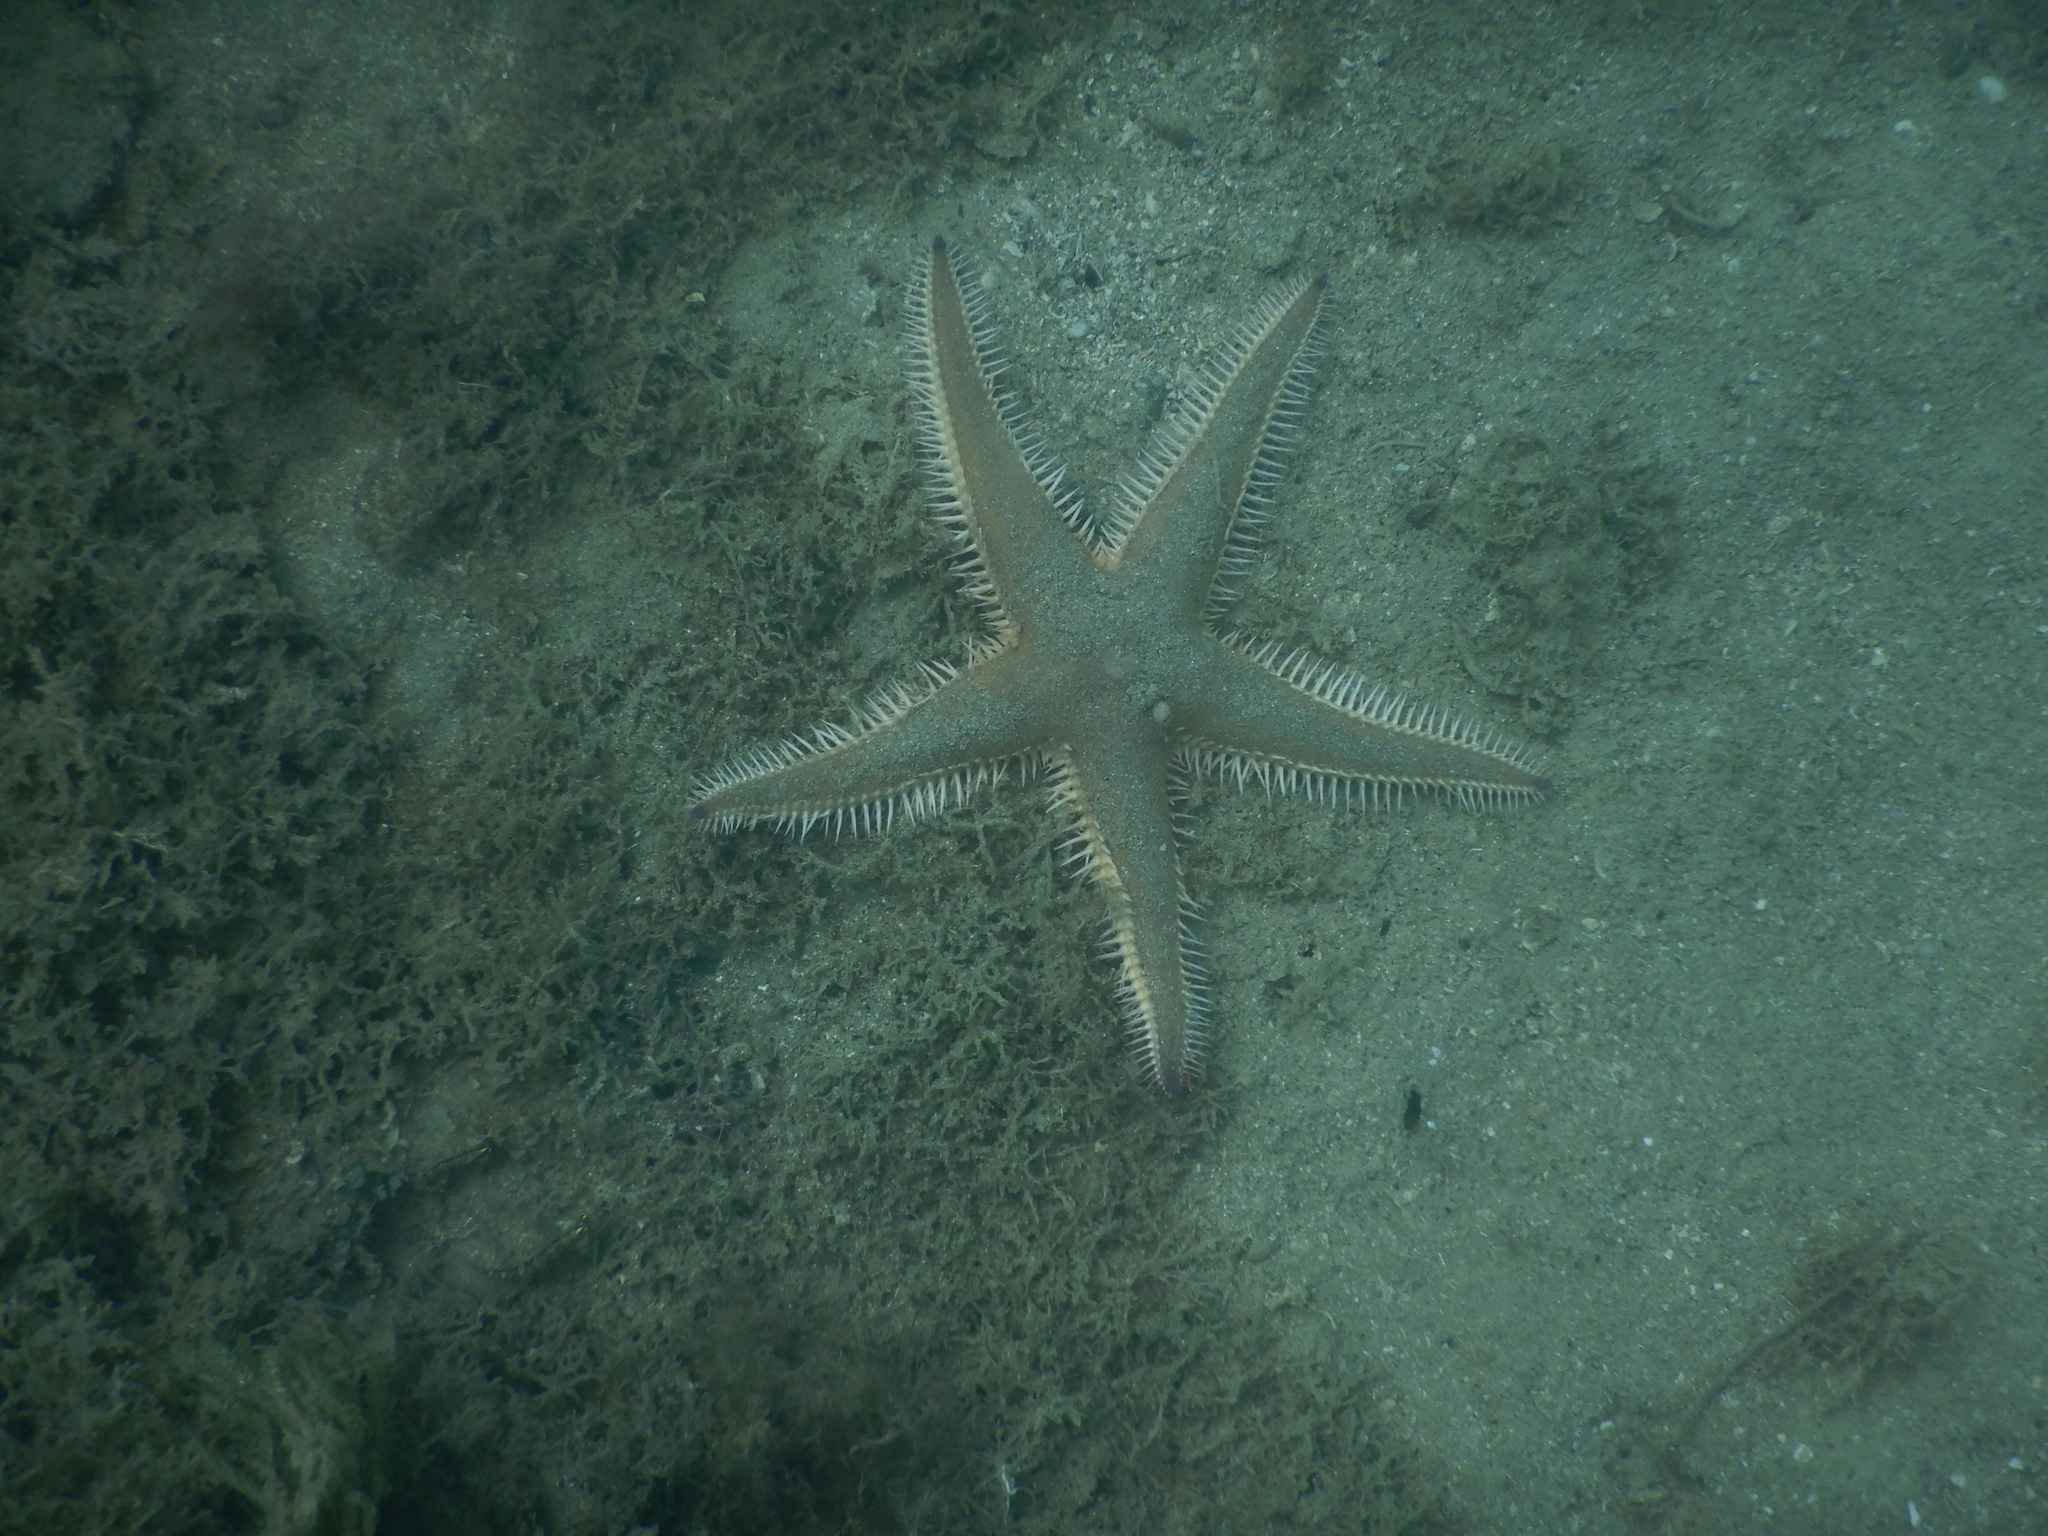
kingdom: Animalia
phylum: Echinodermata
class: Asteroidea
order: Paxillosida
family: Astropectinidae
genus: Astropecten
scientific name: Astropecten polyacanthus
